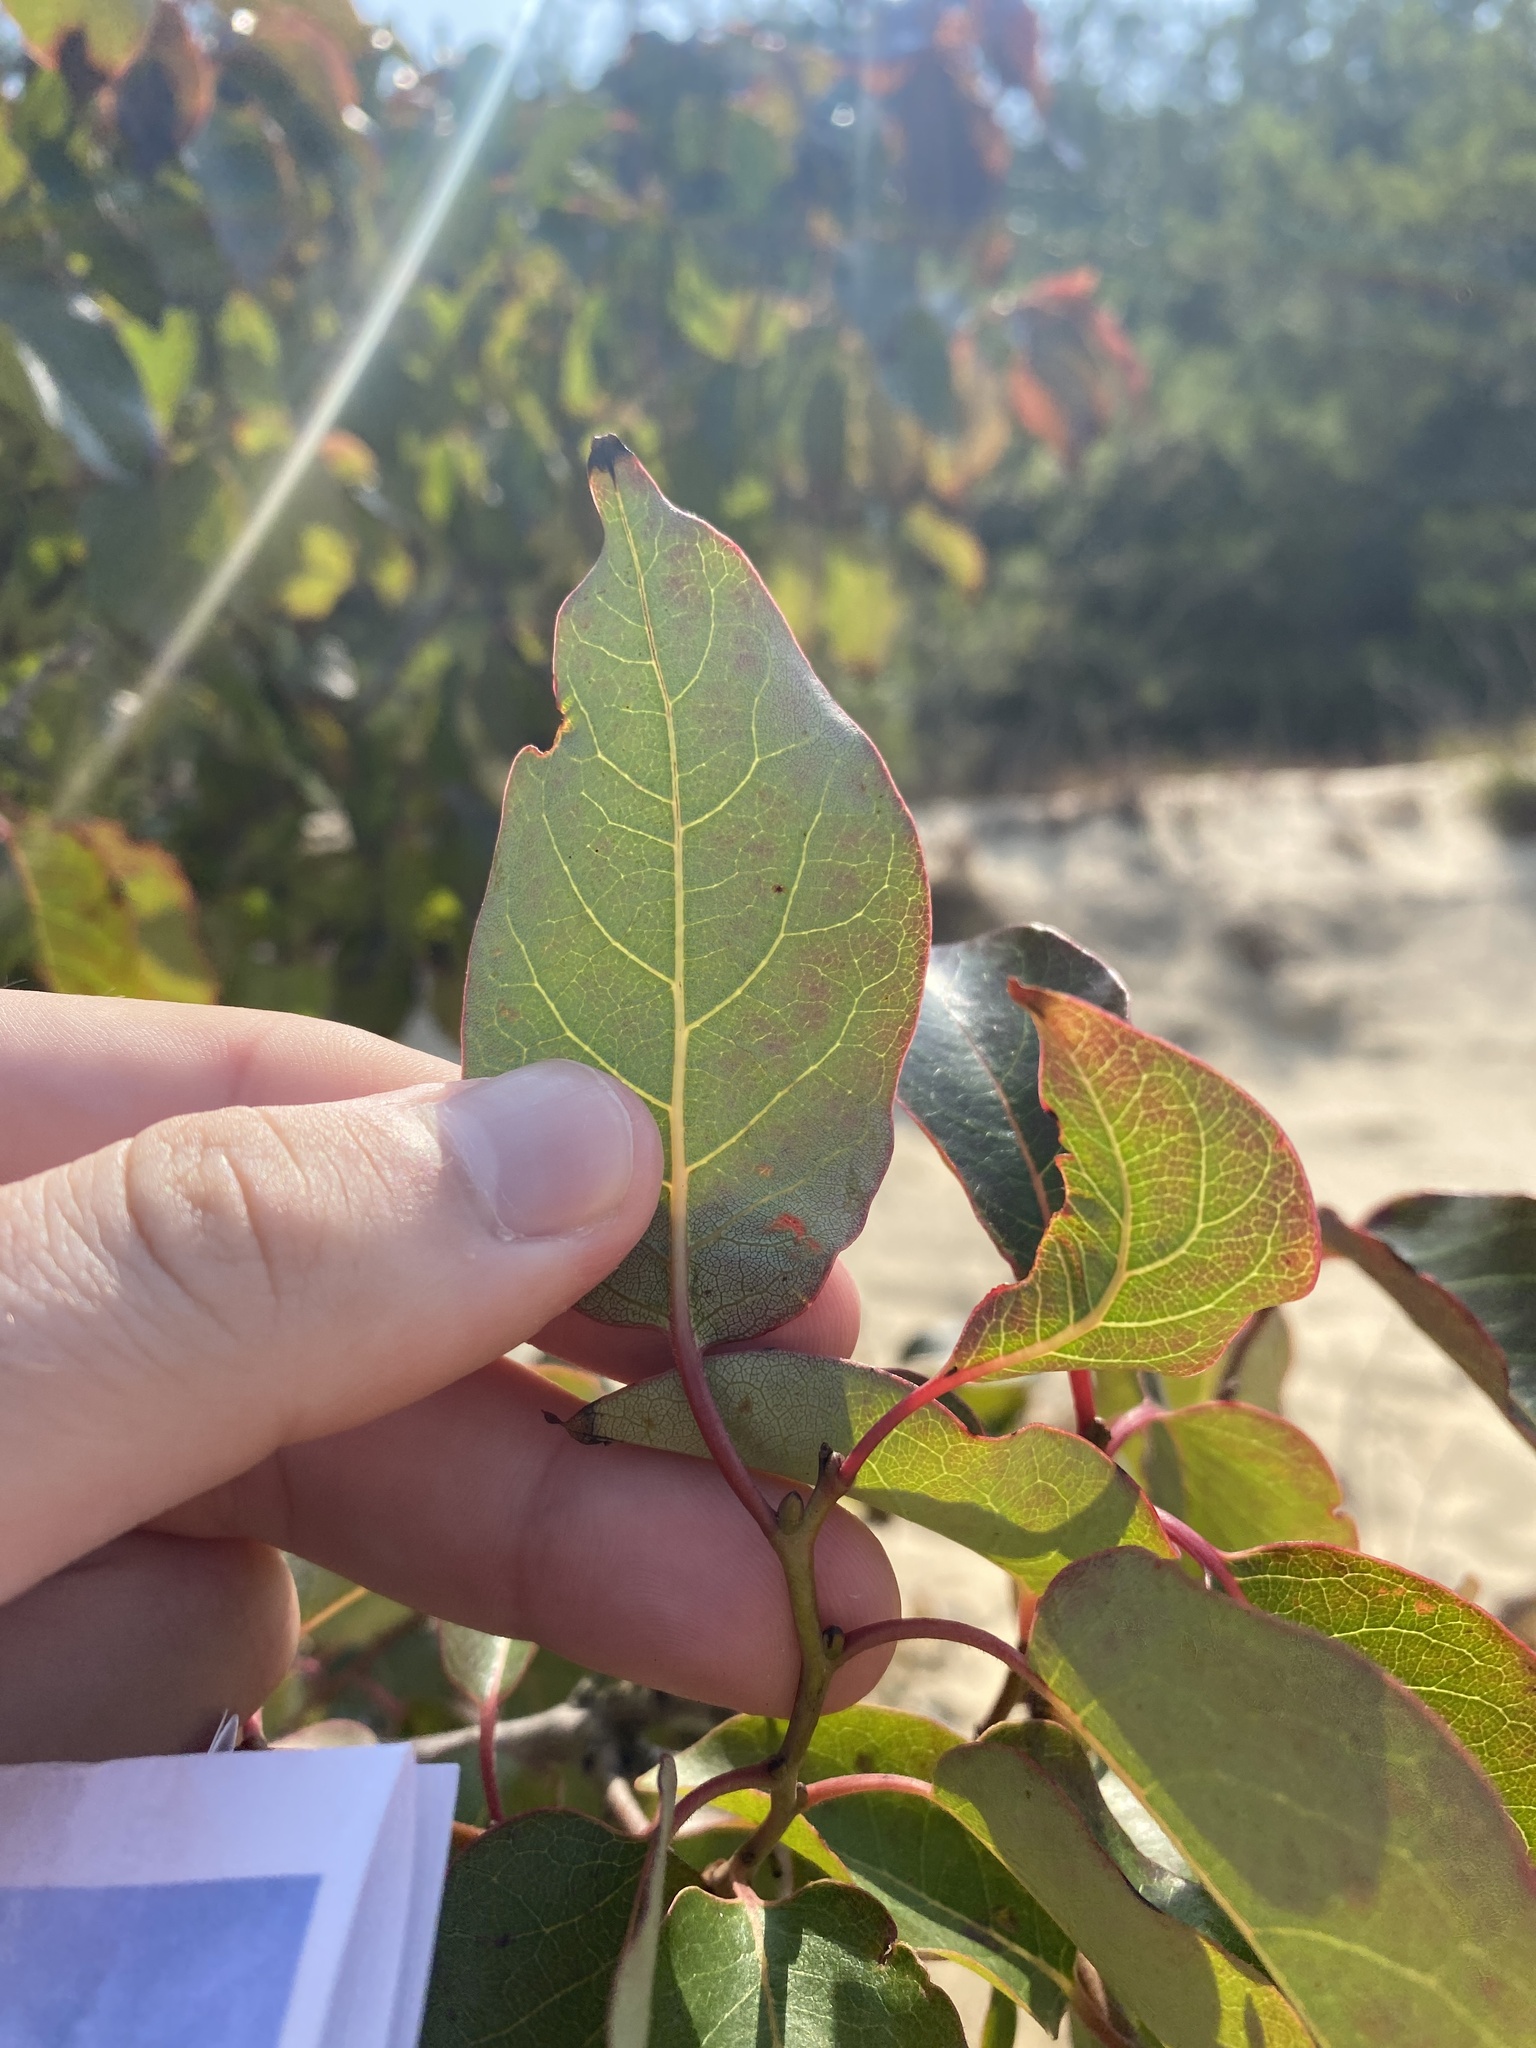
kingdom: Plantae
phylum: Tracheophyta
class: Magnoliopsida
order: Ericales
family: Ebenaceae
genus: Diospyros
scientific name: Diospyros virginiana
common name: Persimmon
